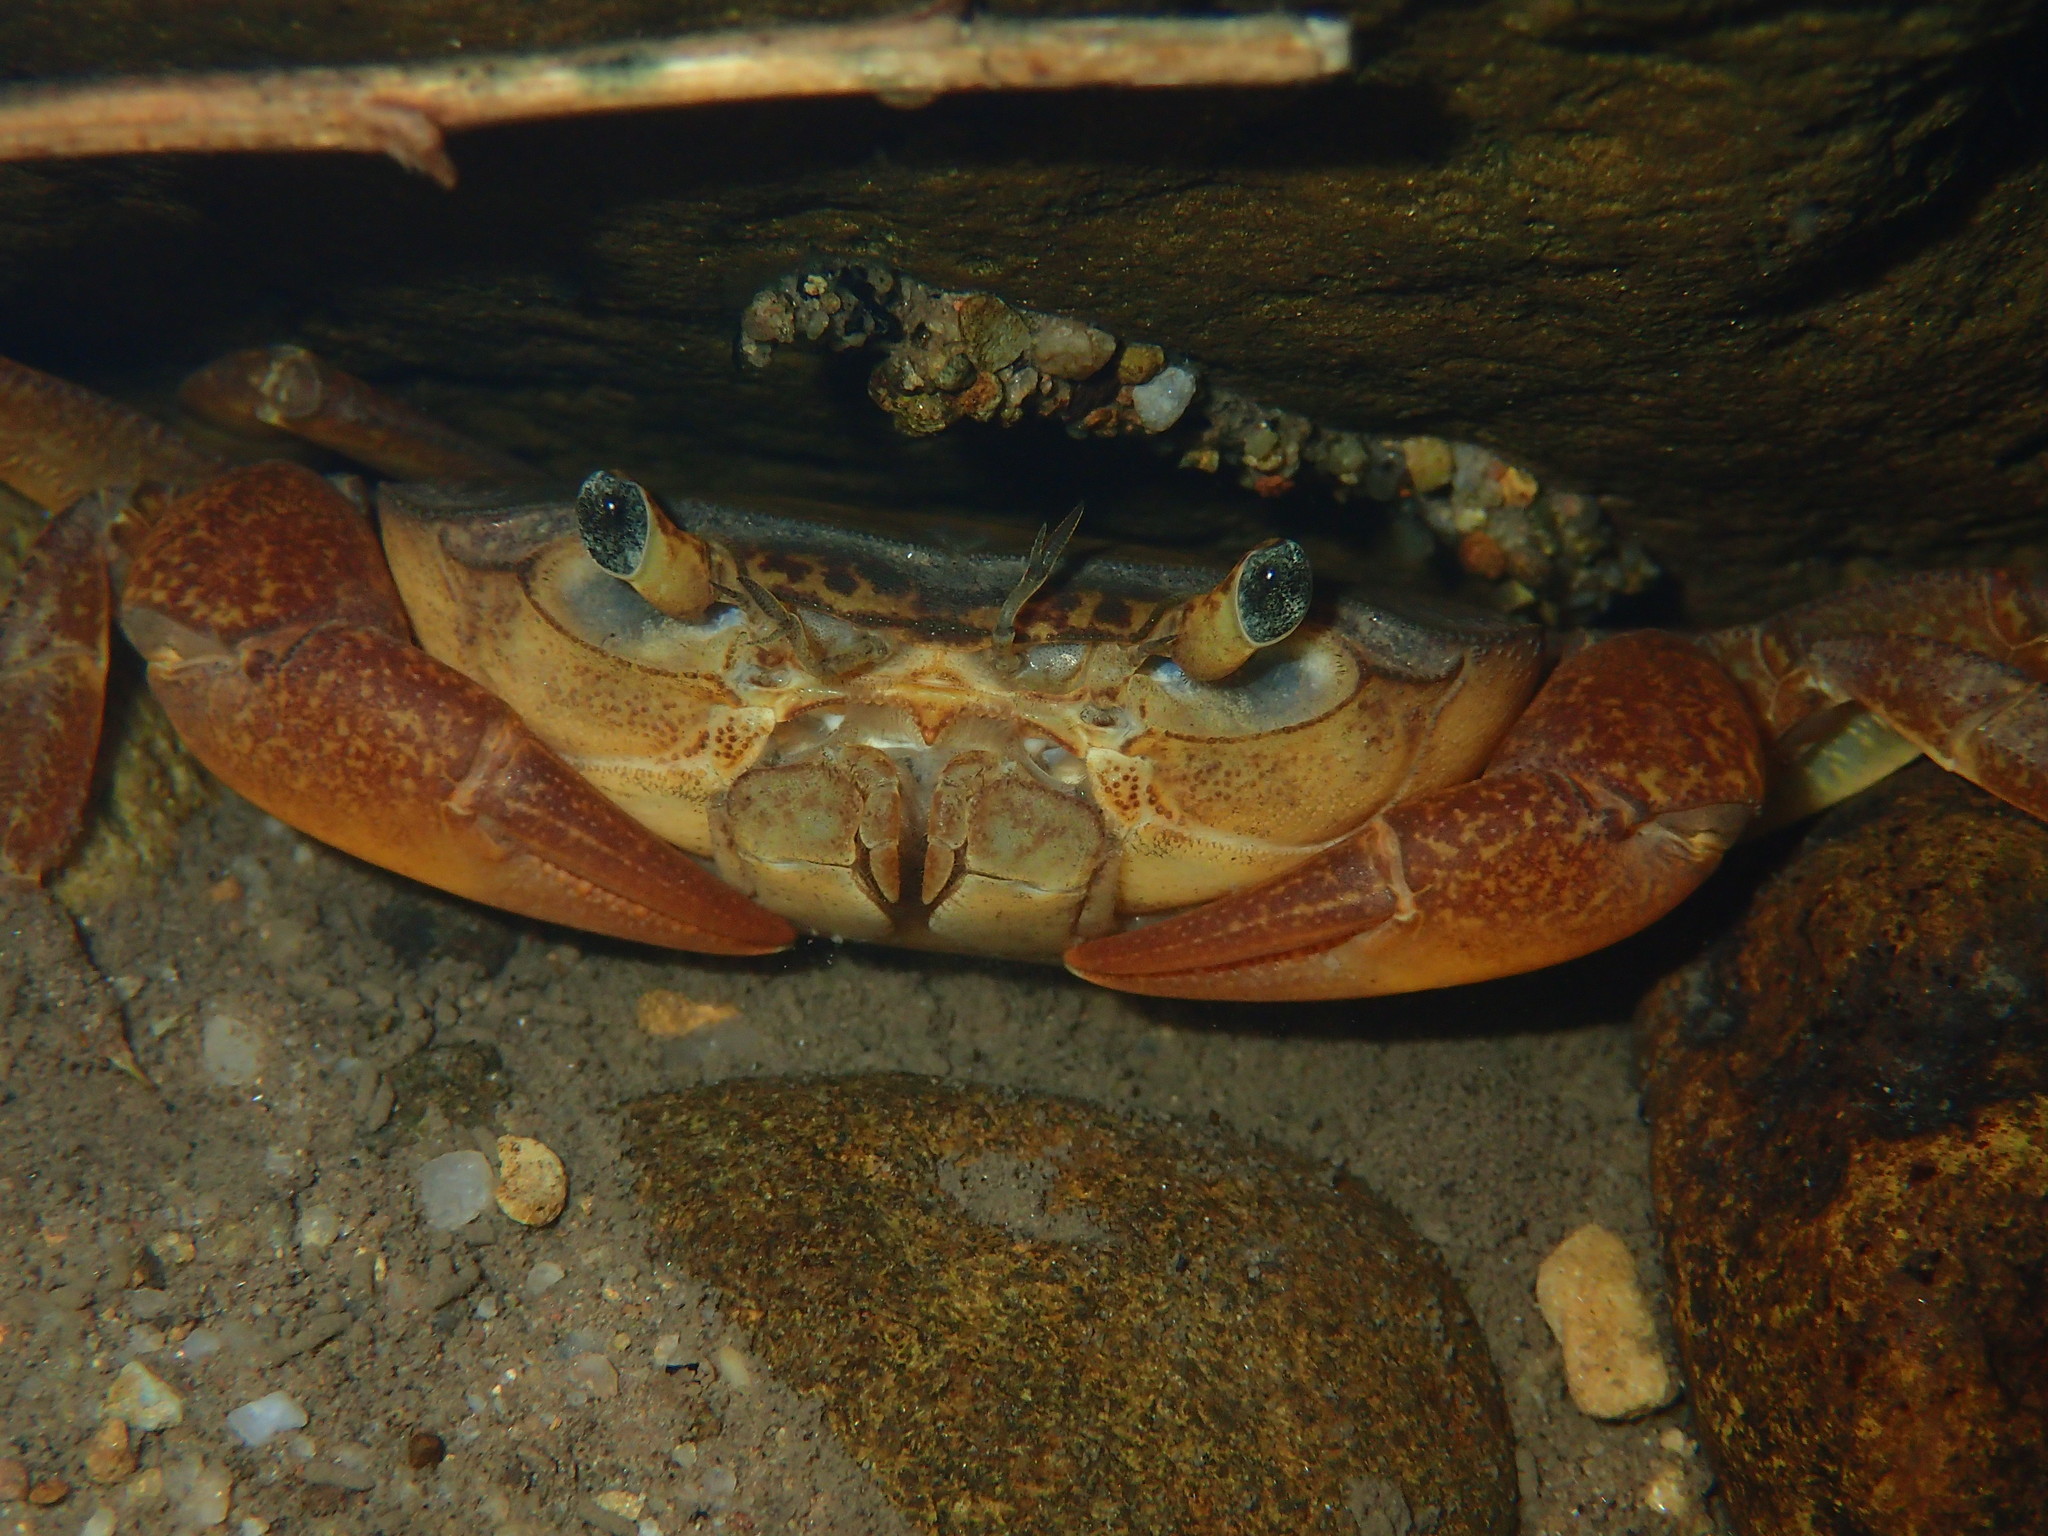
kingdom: Animalia
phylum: Arthropoda
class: Malacostraca
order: Decapoda
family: Potamonautidae
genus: Potamonautes
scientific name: Potamonautes danielsi
